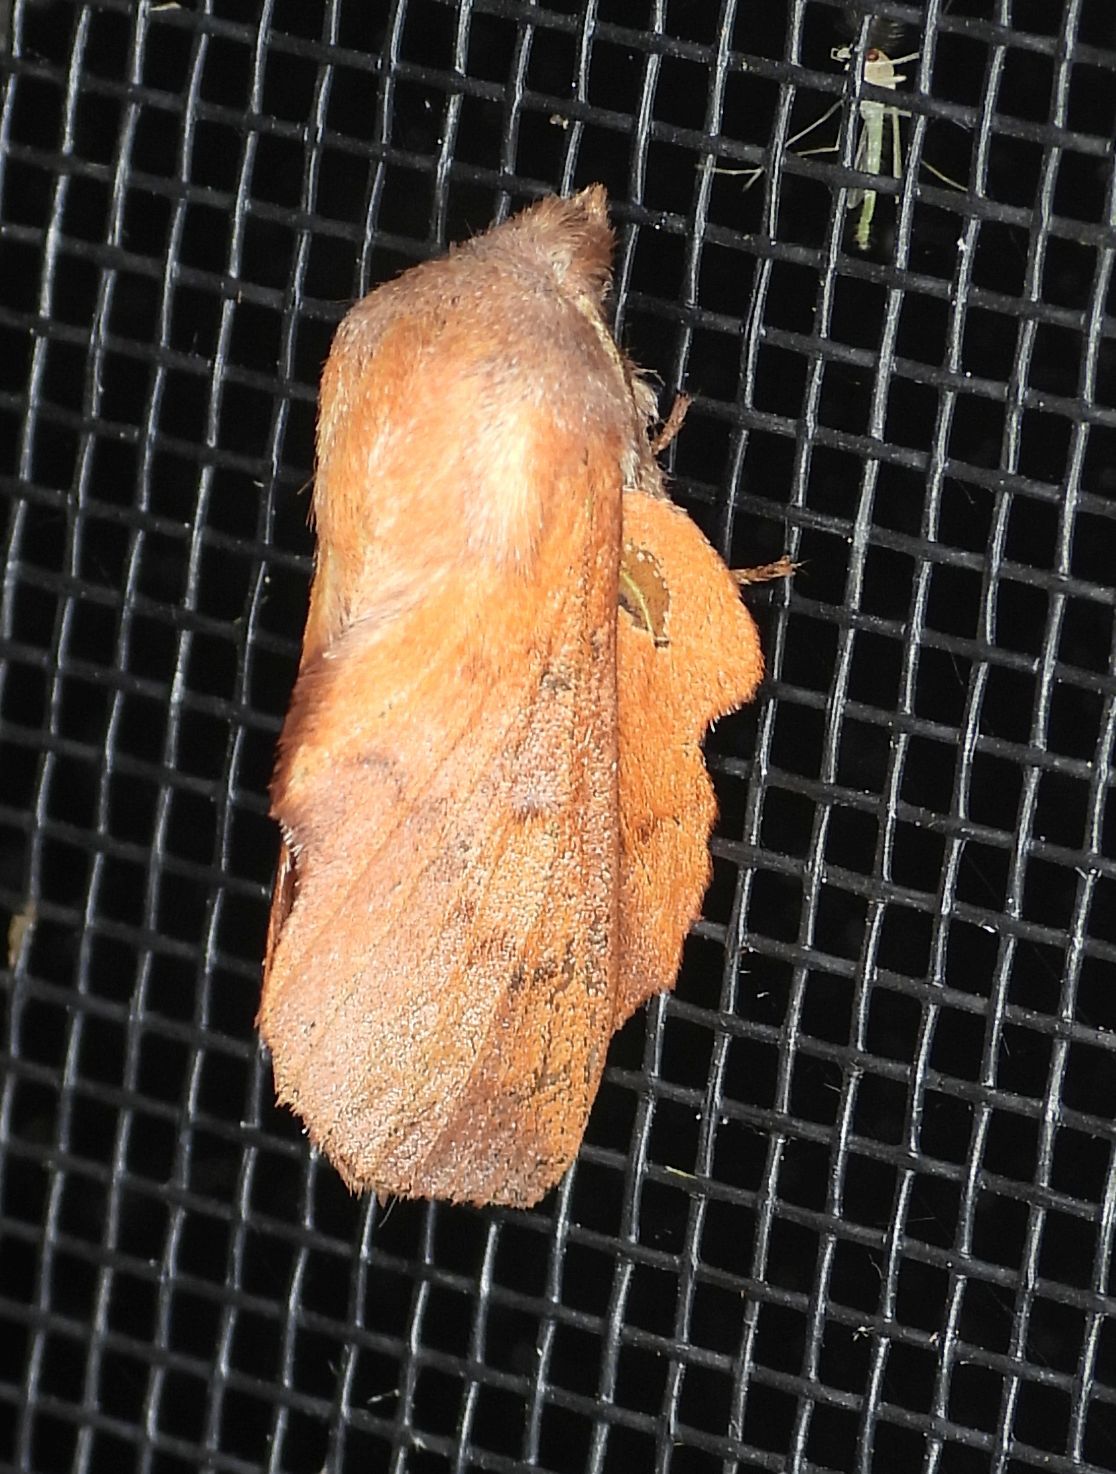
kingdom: Animalia
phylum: Arthropoda
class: Insecta
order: Lepidoptera
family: Lasiocampidae
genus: Phyllodesma
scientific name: Phyllodesma americana
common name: American lappet moth
